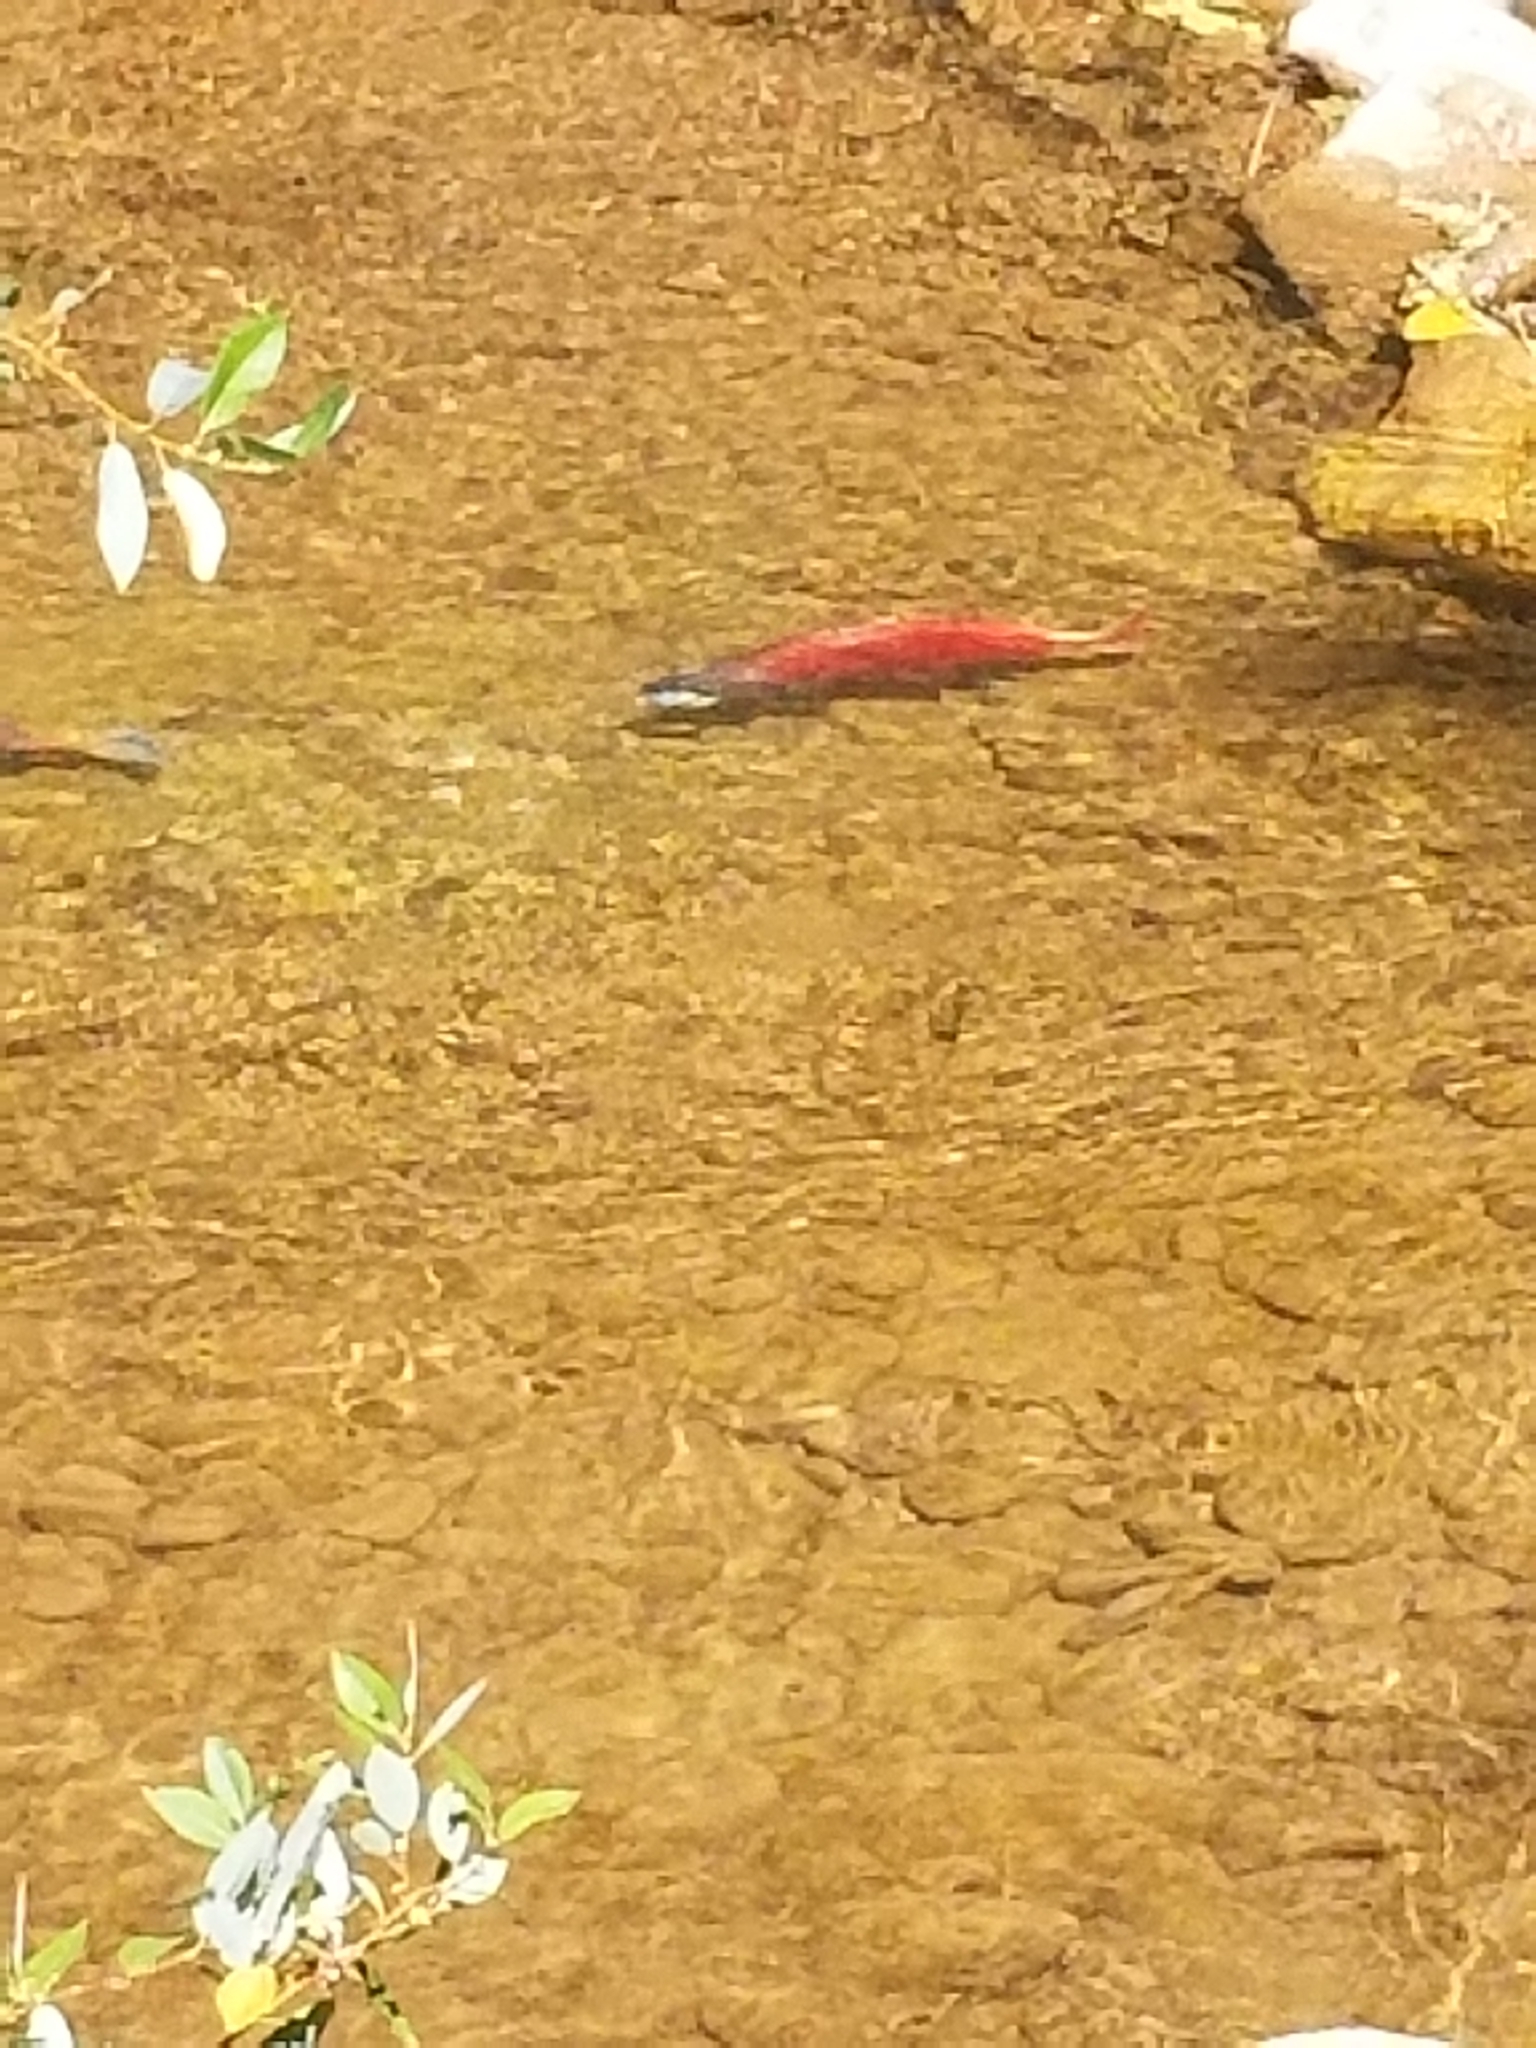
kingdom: Animalia
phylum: Chordata
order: Salmoniformes
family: Salmonidae
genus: Oncorhynchus
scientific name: Oncorhynchus nerka
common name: Sockeye salmon
